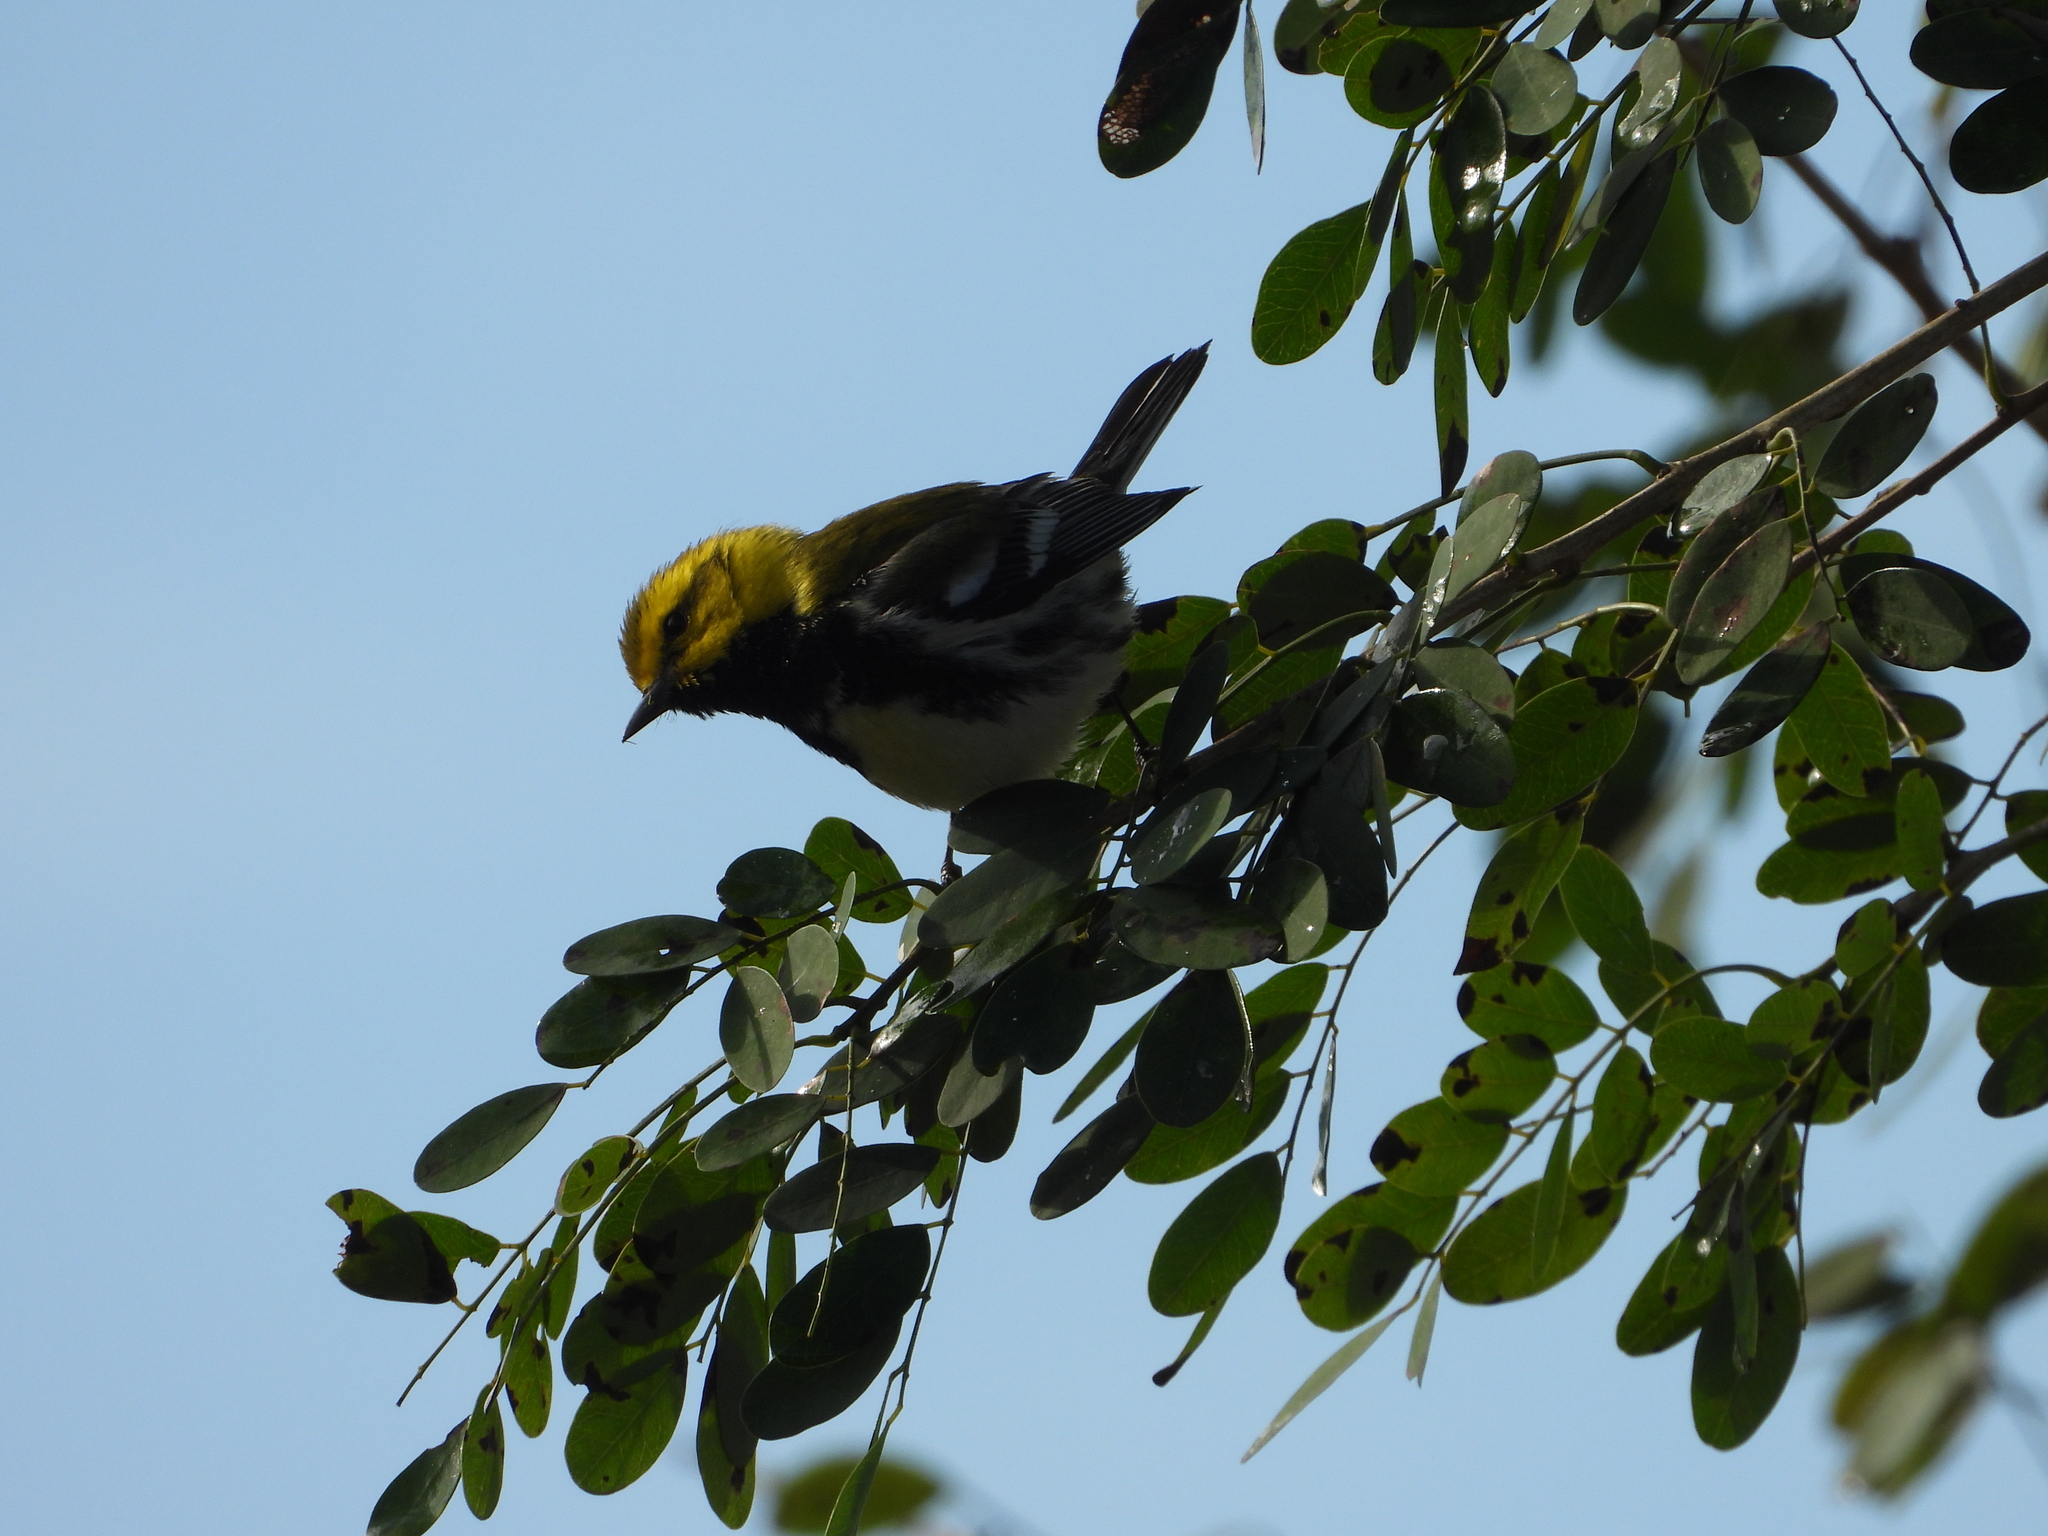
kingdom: Animalia
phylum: Chordata
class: Aves
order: Passeriformes
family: Parulidae
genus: Setophaga
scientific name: Setophaga virens
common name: Black-throated green warbler
